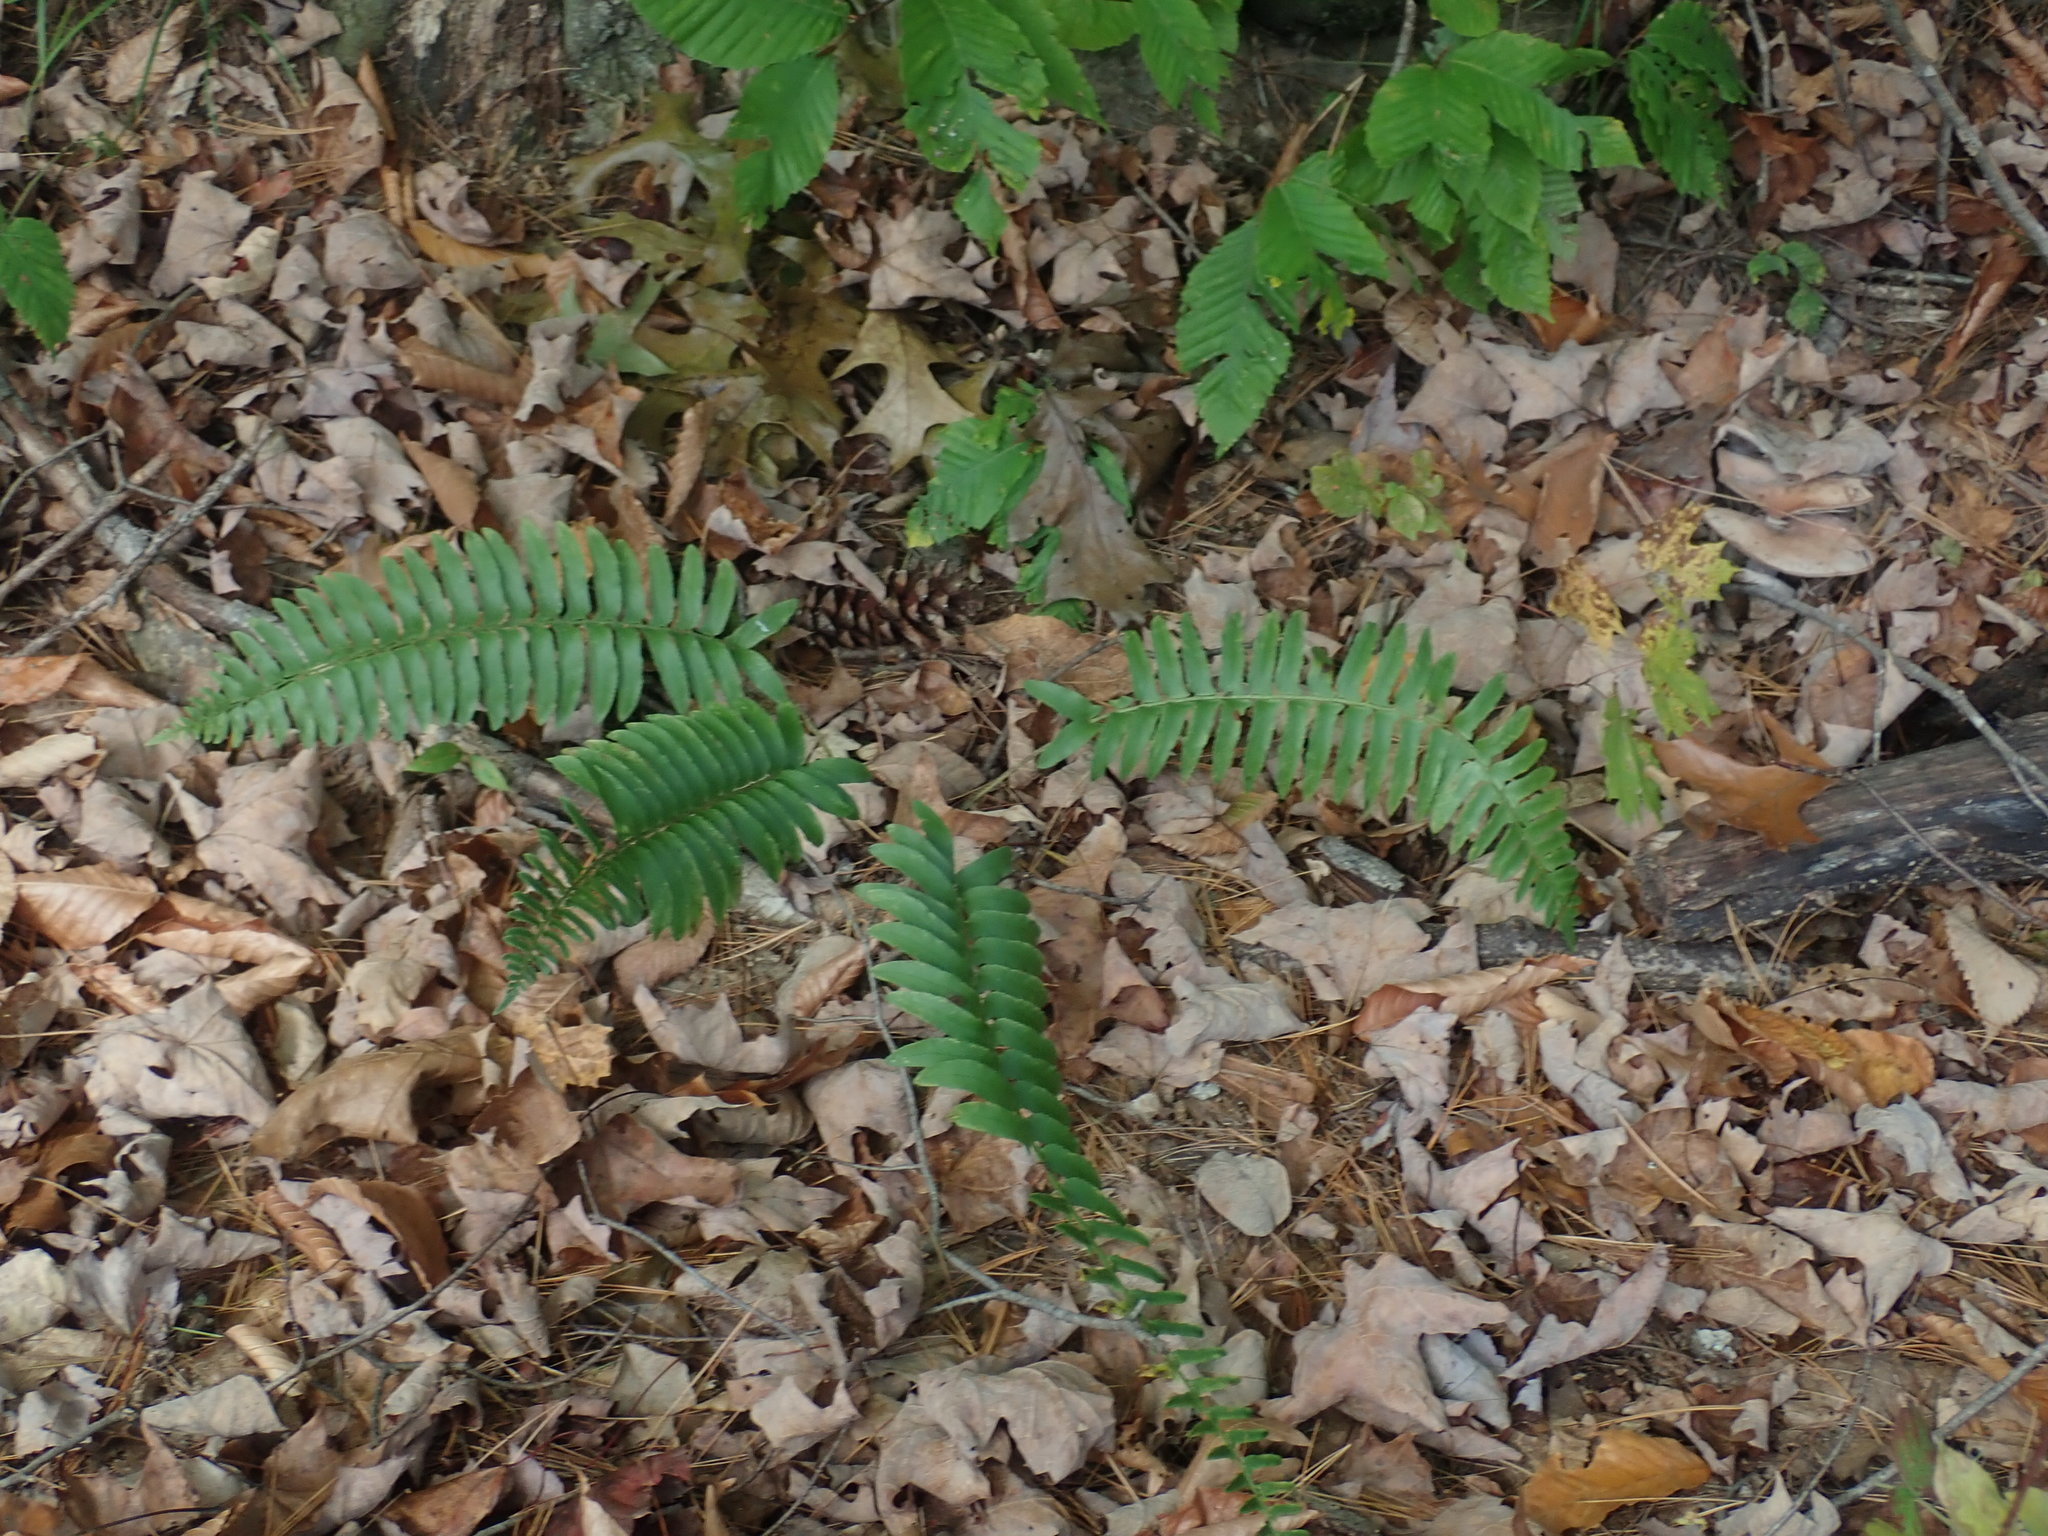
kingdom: Plantae
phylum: Tracheophyta
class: Polypodiopsida
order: Polypodiales
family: Dryopteridaceae
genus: Polystichum
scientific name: Polystichum acrostichoides
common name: Christmas fern
